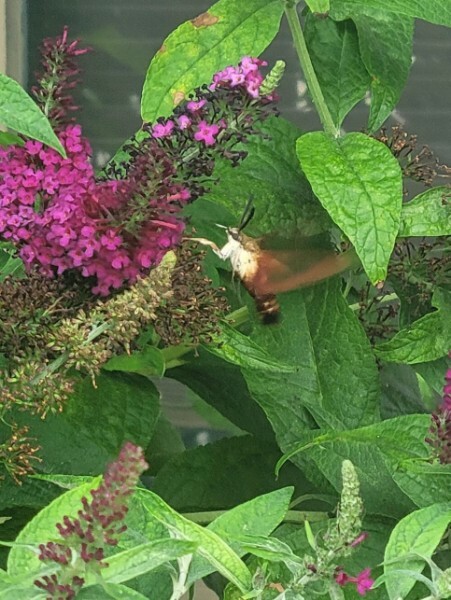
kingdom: Animalia
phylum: Arthropoda
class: Insecta
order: Lepidoptera
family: Sphingidae
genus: Hemaris
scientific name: Hemaris thysbe
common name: Common clear-wing
